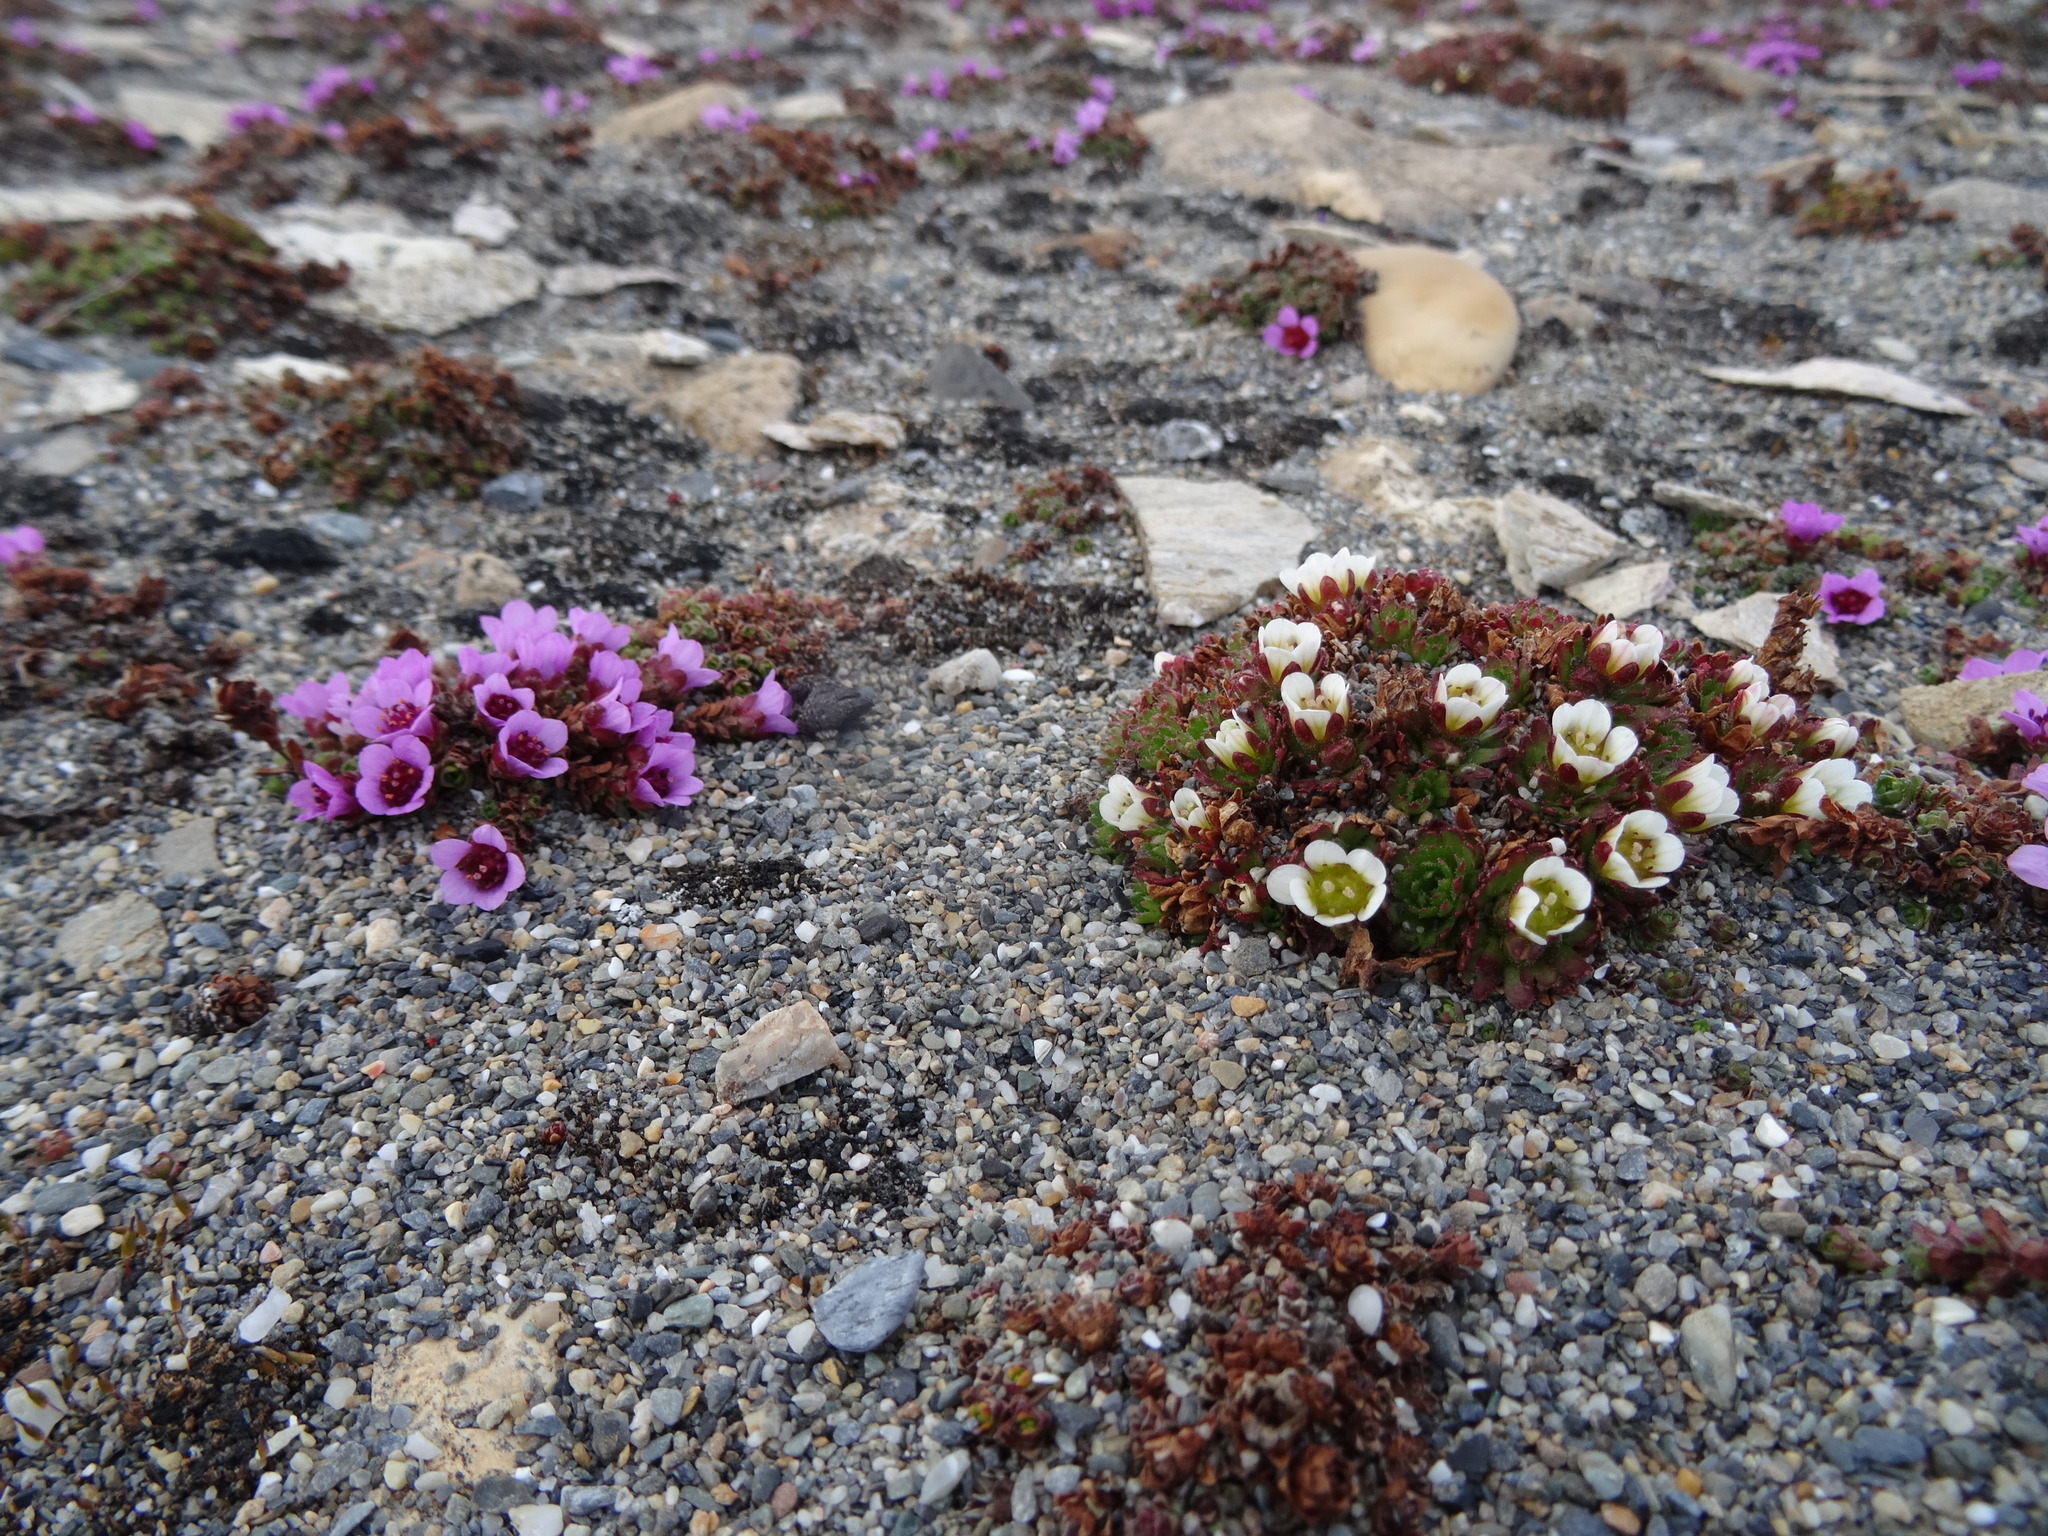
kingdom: Plantae
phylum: Tracheophyta
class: Magnoliopsida
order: Saxifragales
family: Saxifragaceae
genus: Saxifraga
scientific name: Saxifraga oppositifolia
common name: Purple saxifrage
